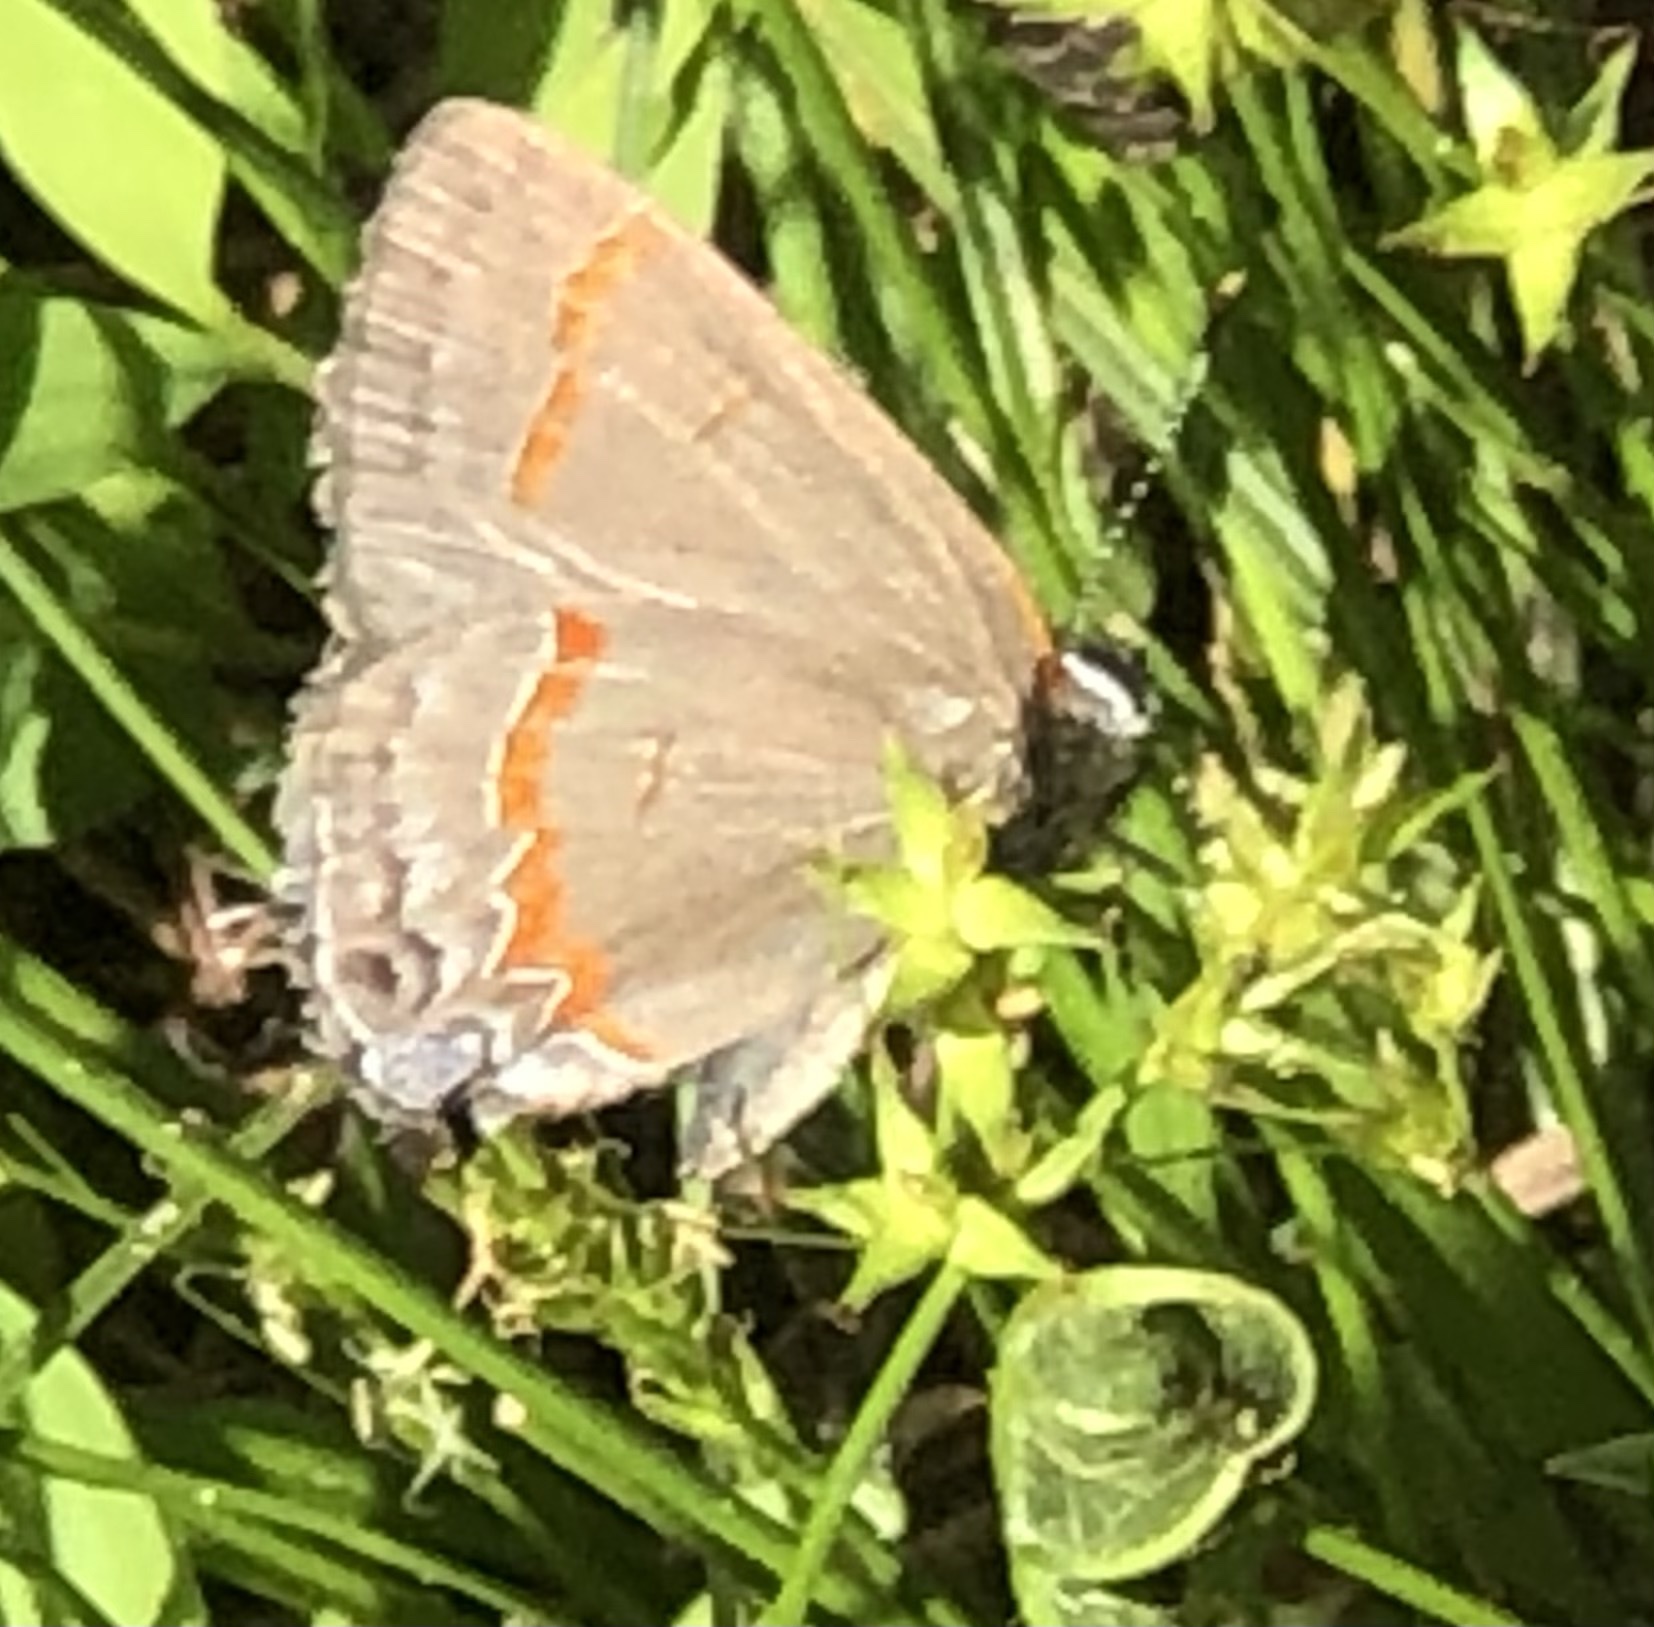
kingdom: Animalia
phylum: Arthropoda
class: Insecta
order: Lepidoptera
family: Lycaenidae
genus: Calycopis
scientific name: Calycopis cecrops
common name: Red-banded hairstreak
